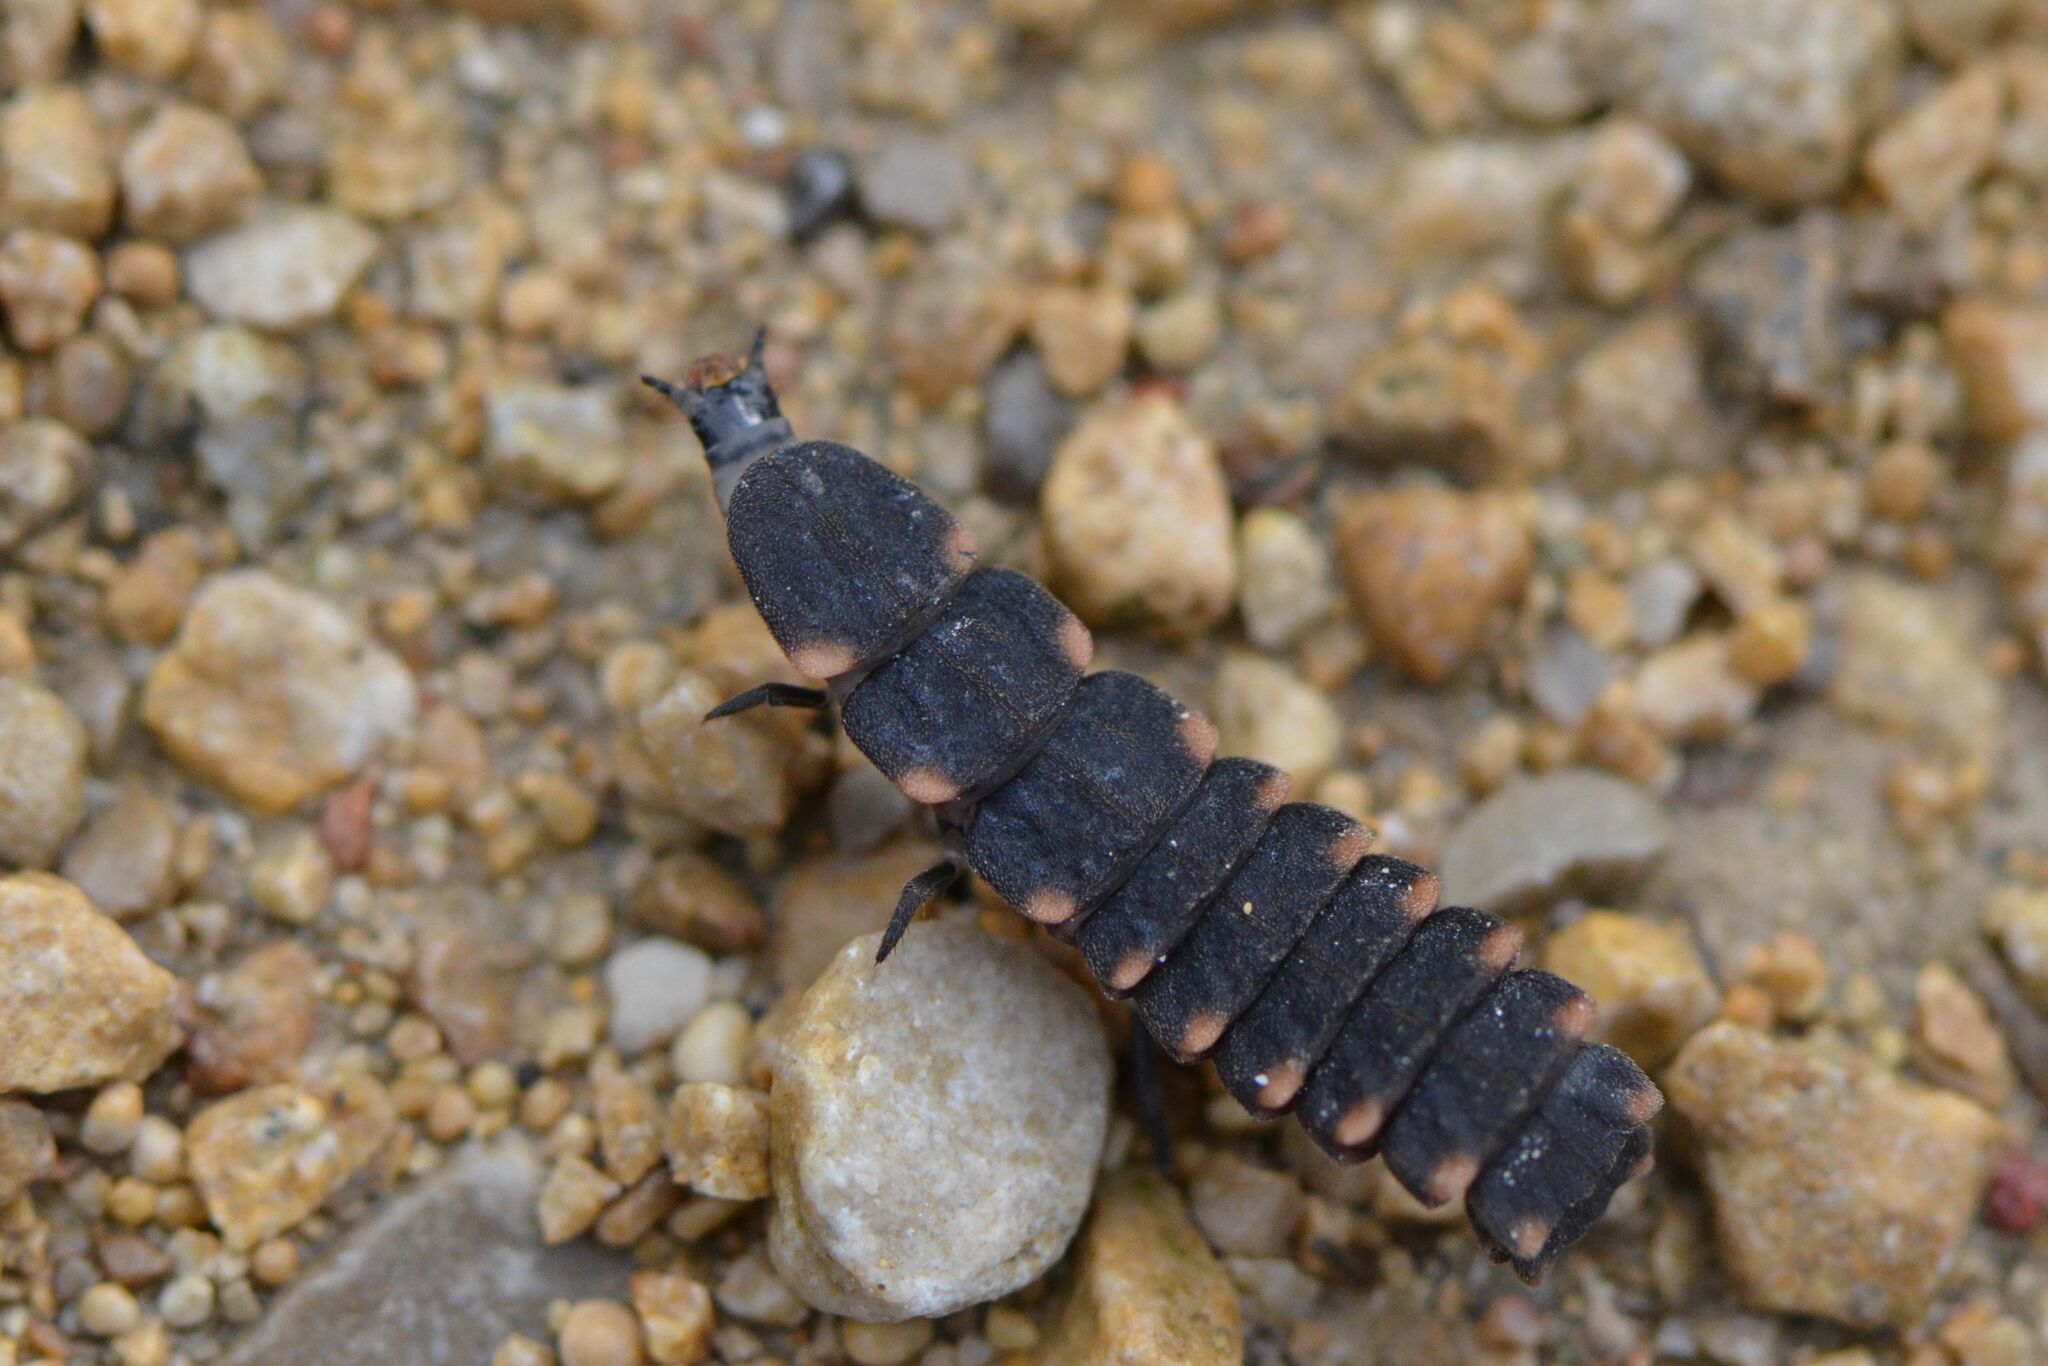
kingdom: Animalia
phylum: Arthropoda
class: Insecta
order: Coleoptera
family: Lampyridae
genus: Lampyris
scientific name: Lampyris noctiluca
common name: Glow-worm
